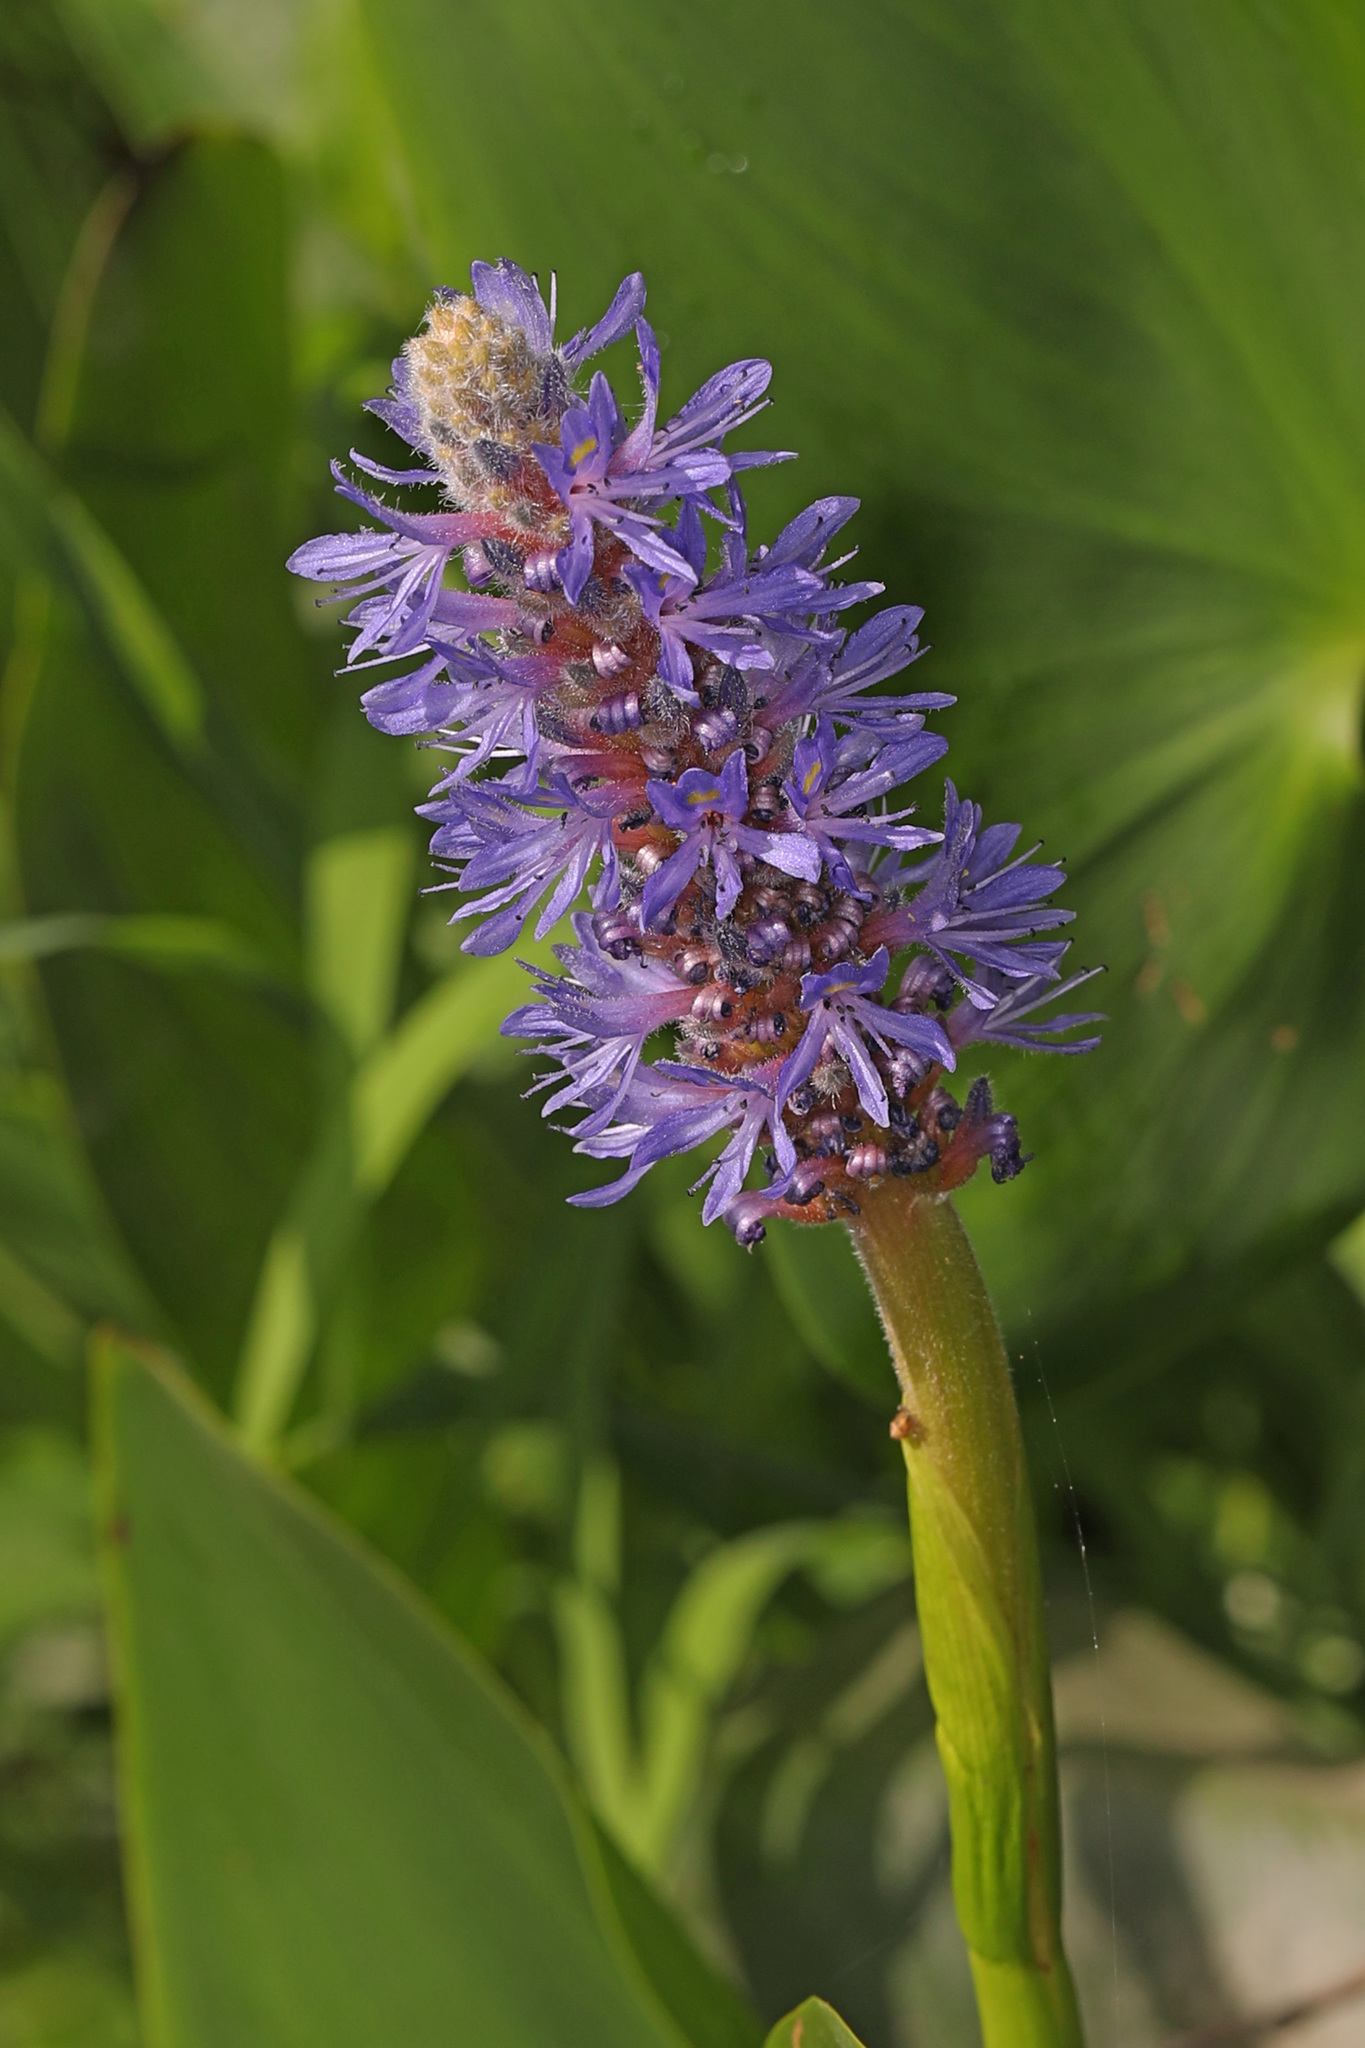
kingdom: Plantae
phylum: Tracheophyta
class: Liliopsida
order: Commelinales
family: Pontederiaceae
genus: Pontederia
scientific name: Pontederia cordata
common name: Pickerelweed
